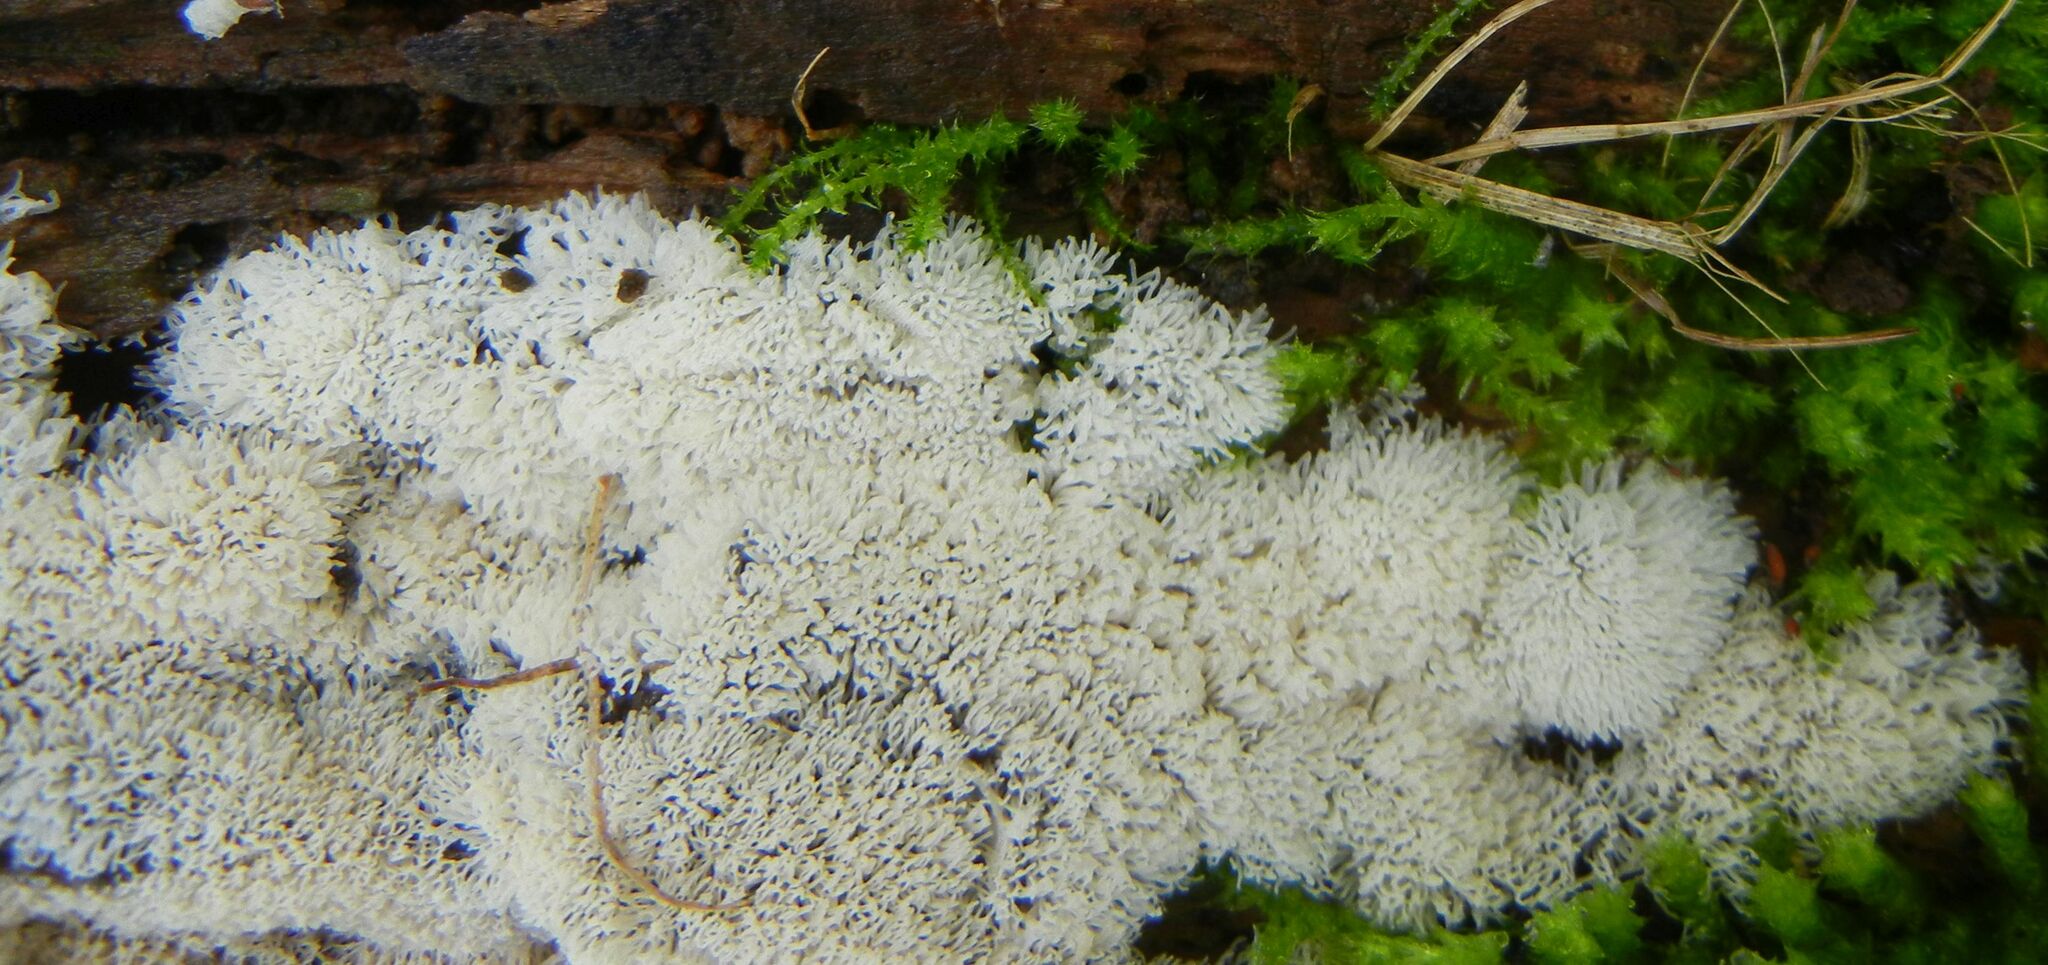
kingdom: Protozoa
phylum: Mycetozoa
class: Protosteliomycetes
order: Ceratiomyxales
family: Ceratiomyxaceae
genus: Ceratiomyxa
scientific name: Ceratiomyxa fruticulosa
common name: Honeycomb coral slime mold
